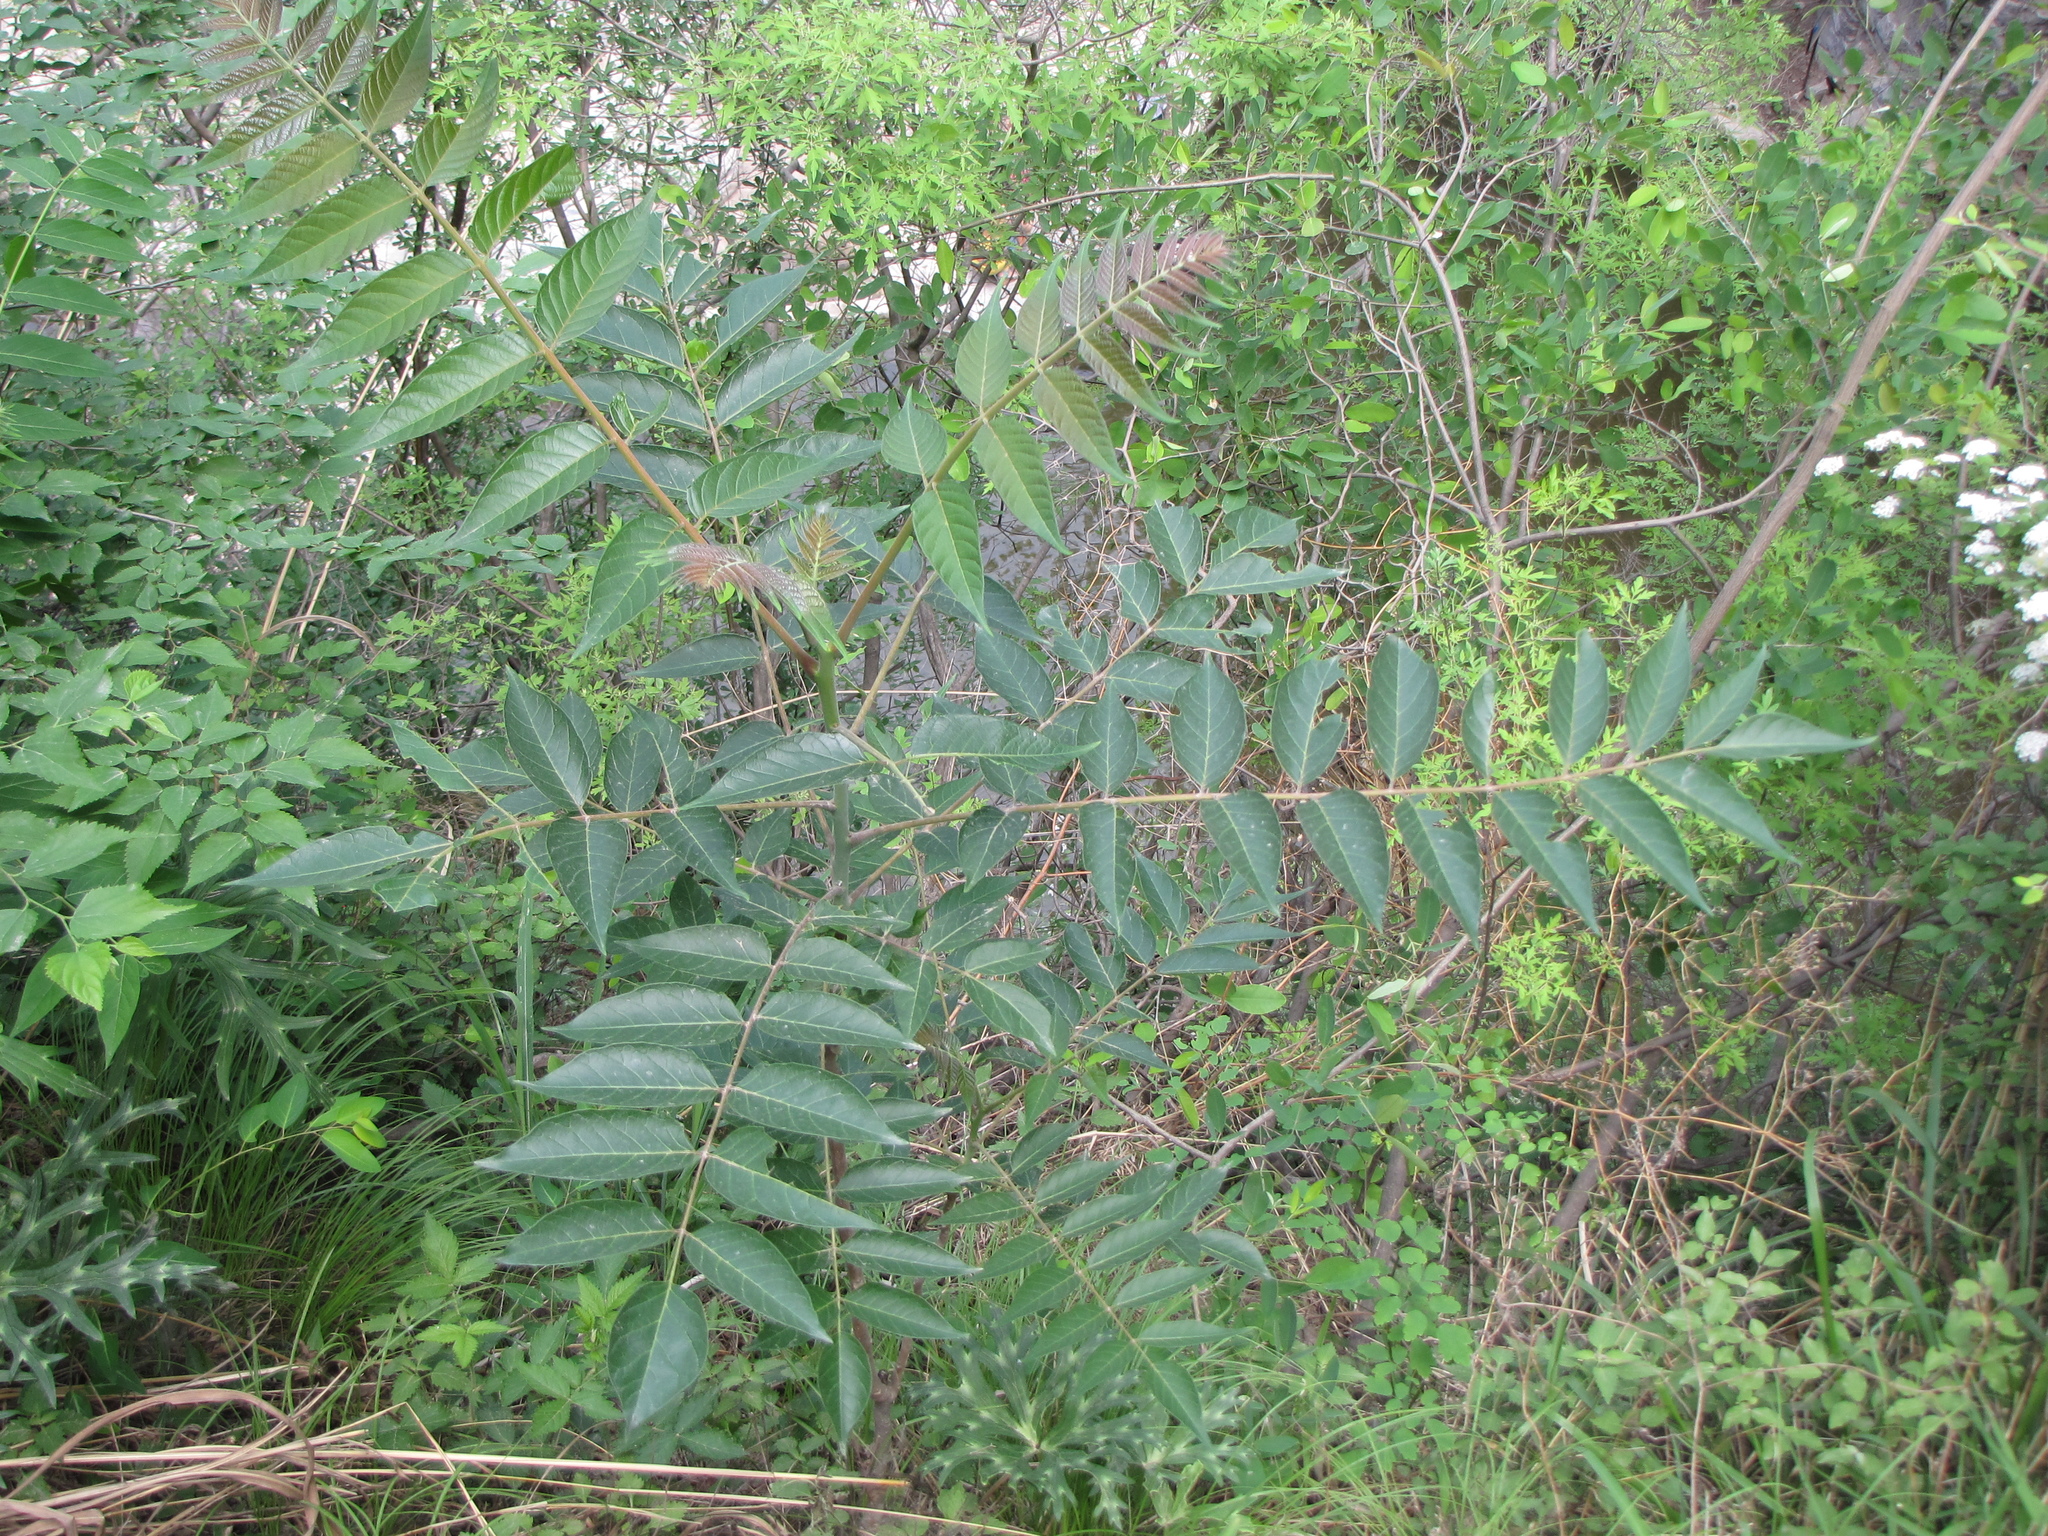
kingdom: Plantae
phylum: Tracheophyta
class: Magnoliopsida
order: Sapindales
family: Simaroubaceae
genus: Ailanthus
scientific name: Ailanthus altissima
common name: Tree-of-heaven
